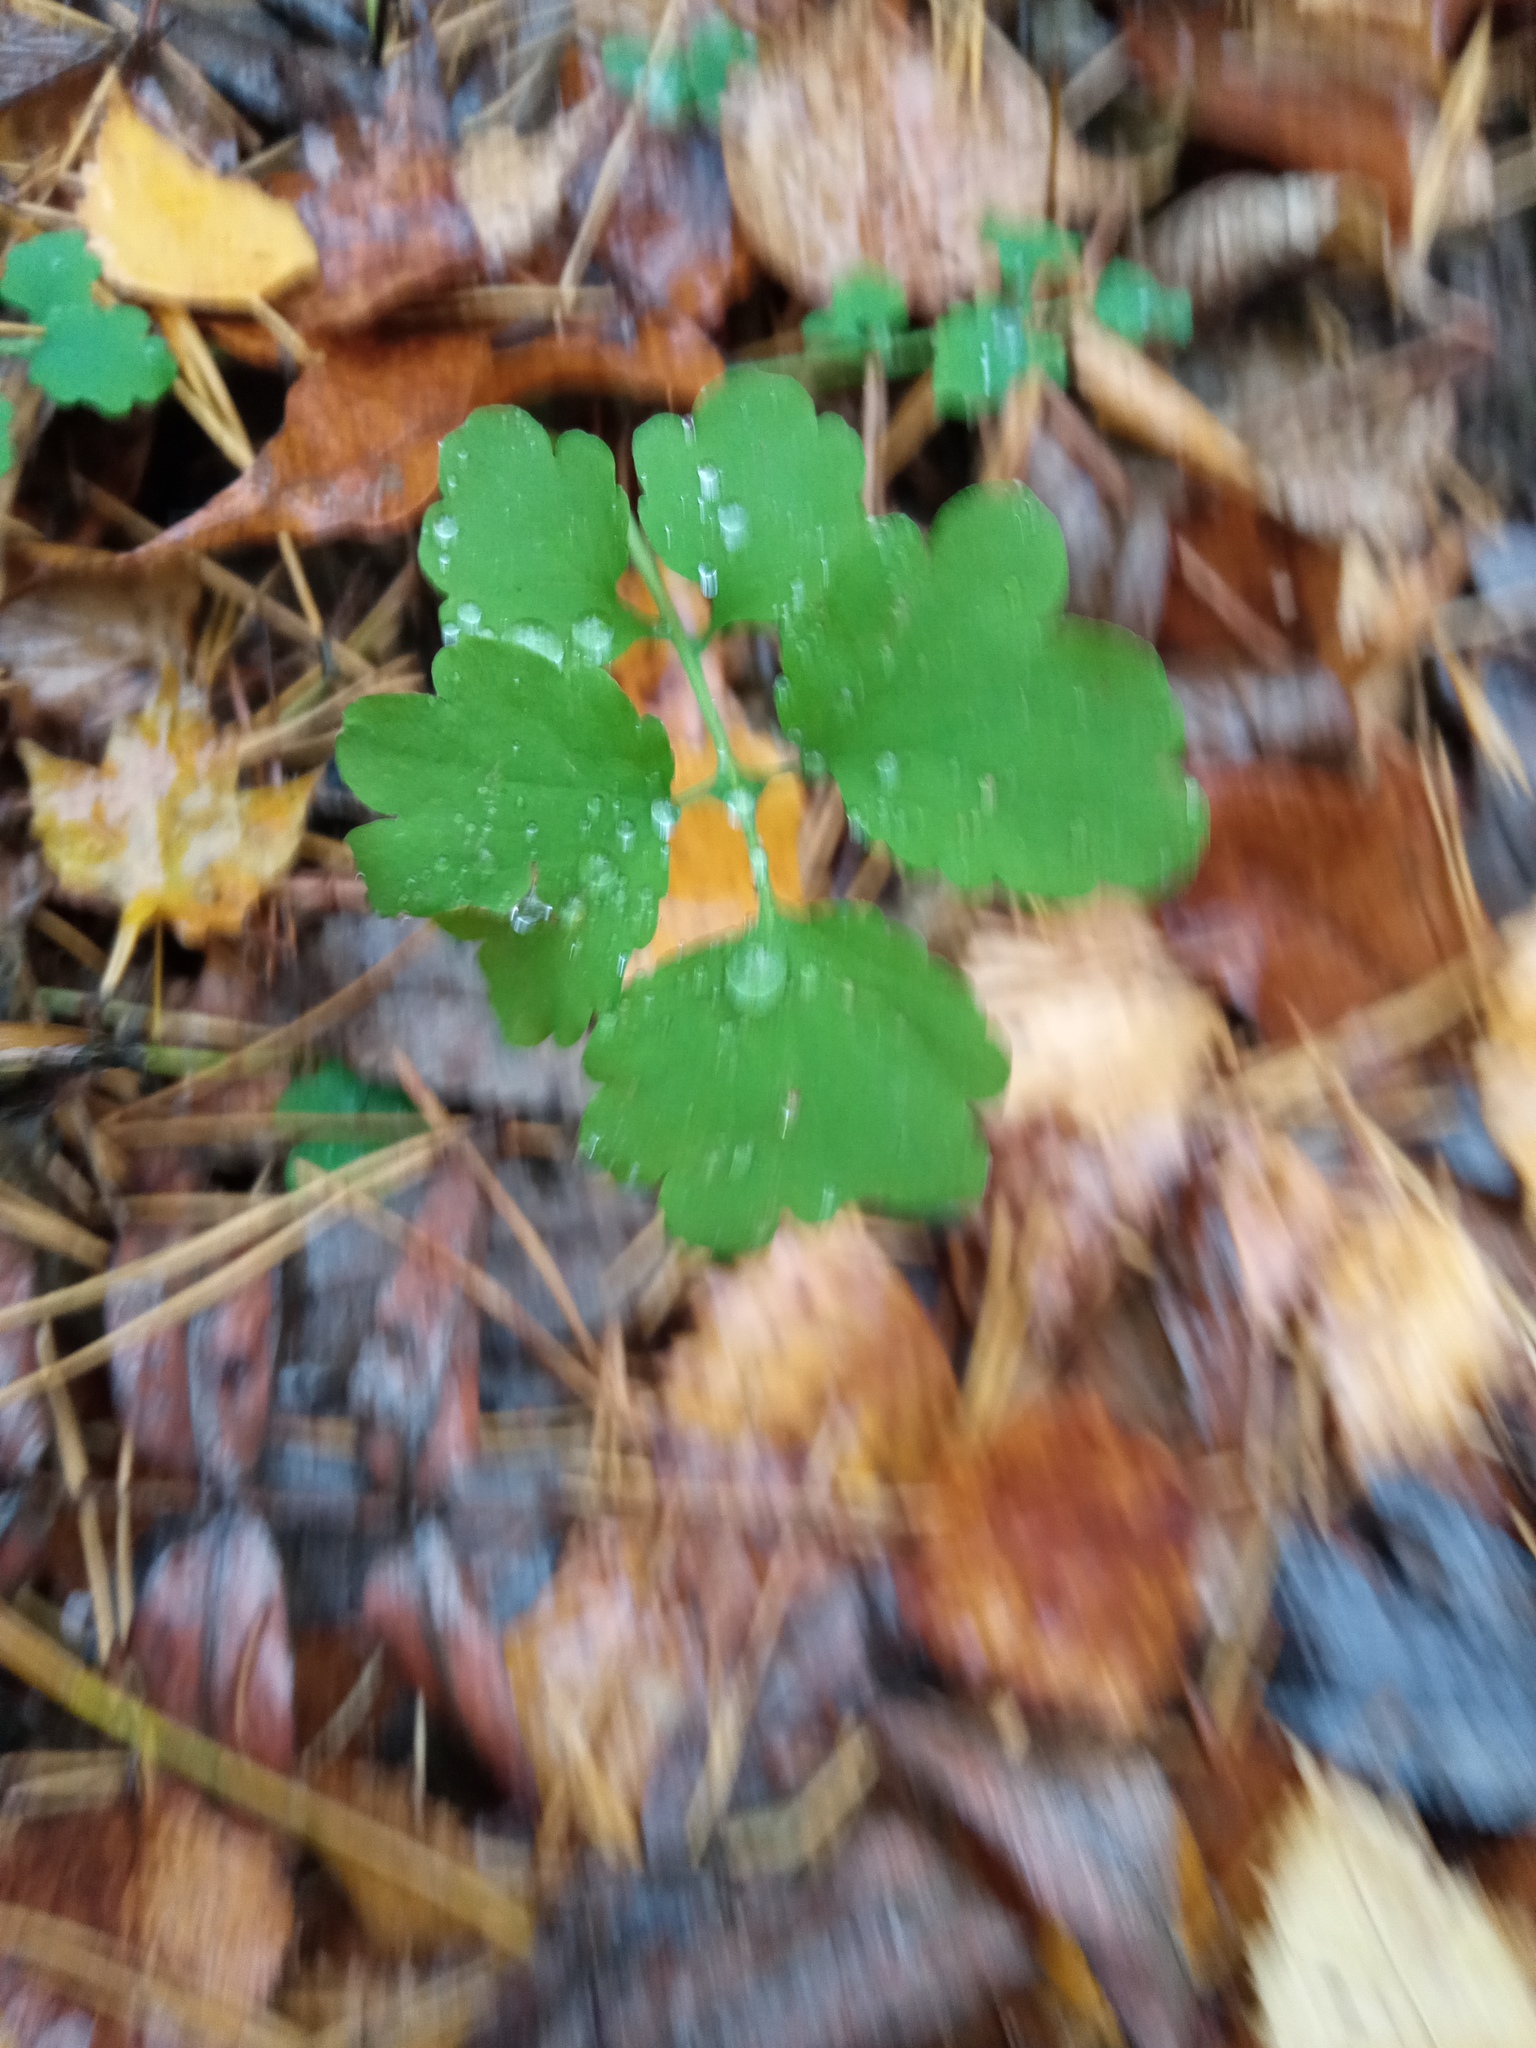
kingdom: Plantae
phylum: Tracheophyta
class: Magnoliopsida
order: Ranunculales
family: Papaveraceae
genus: Chelidonium
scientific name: Chelidonium majus
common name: Greater celandine
